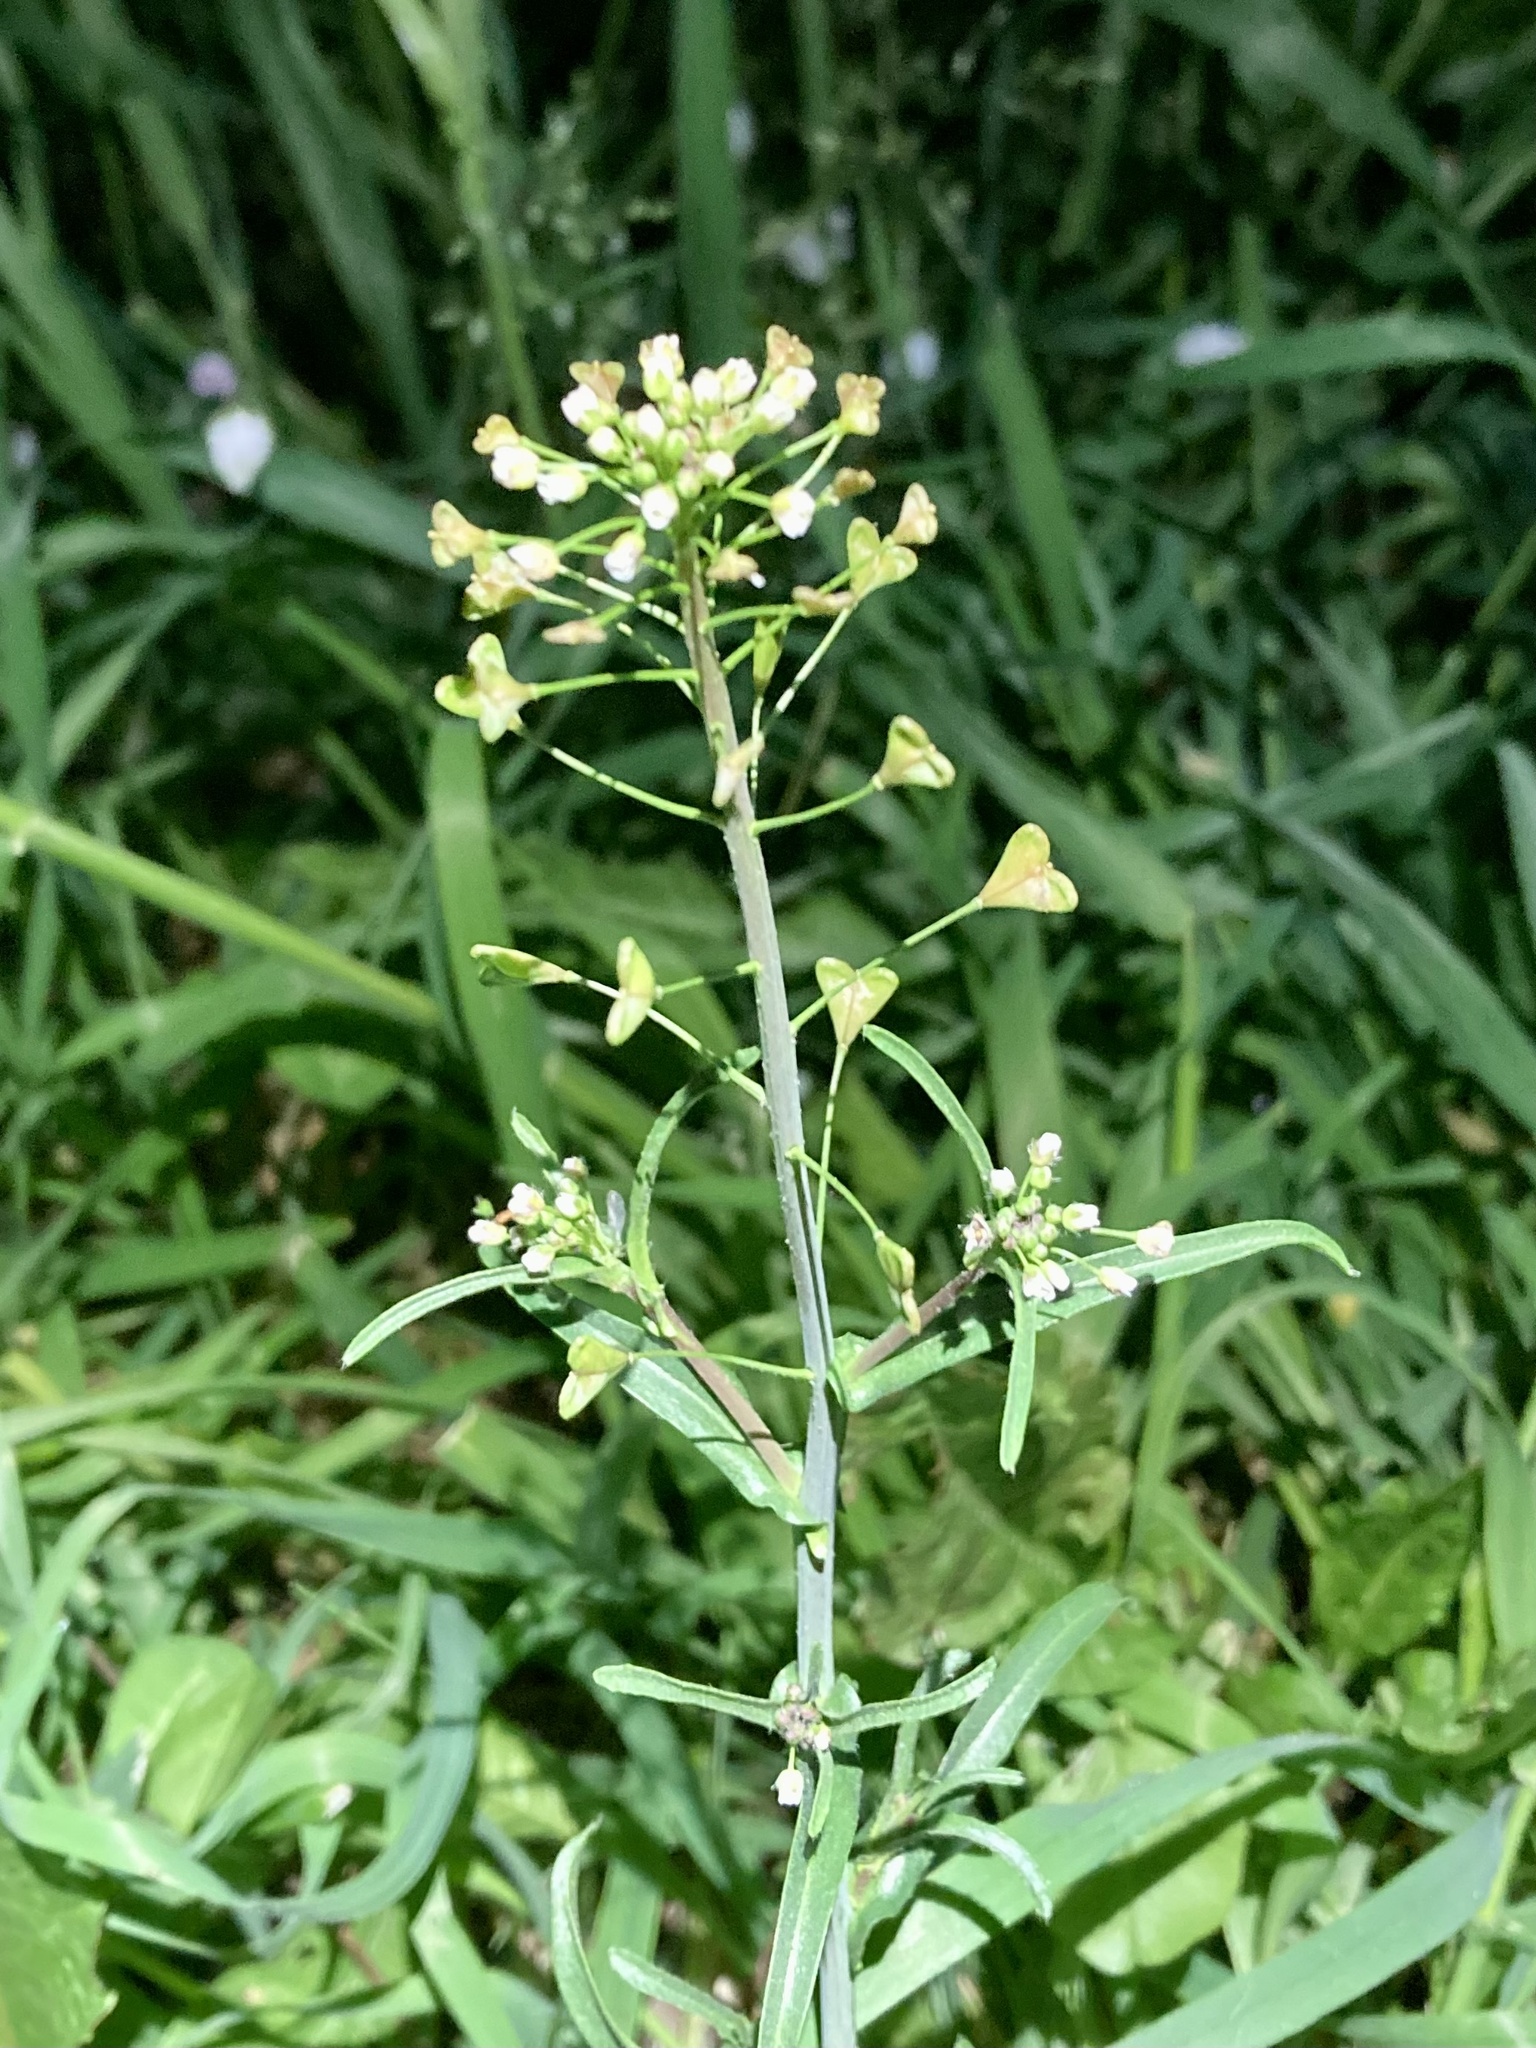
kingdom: Plantae
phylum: Tracheophyta
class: Magnoliopsida
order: Brassicales
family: Brassicaceae
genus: Capsella
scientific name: Capsella bursa-pastoris
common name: Shepherd's purse
